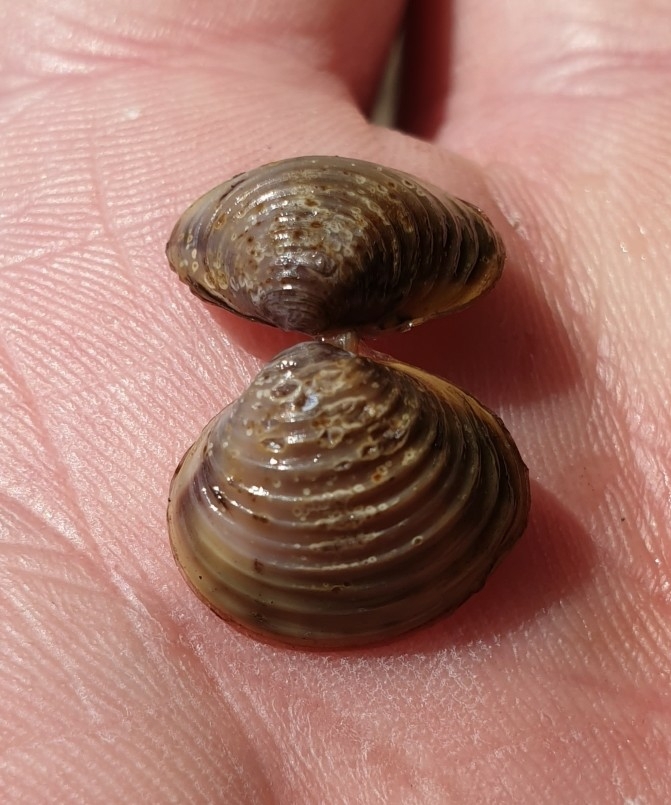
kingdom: Animalia
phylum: Mollusca
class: Bivalvia
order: Venerida
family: Cyrenidae
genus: Corbicula
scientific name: Corbicula fluminea
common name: Asian clam
